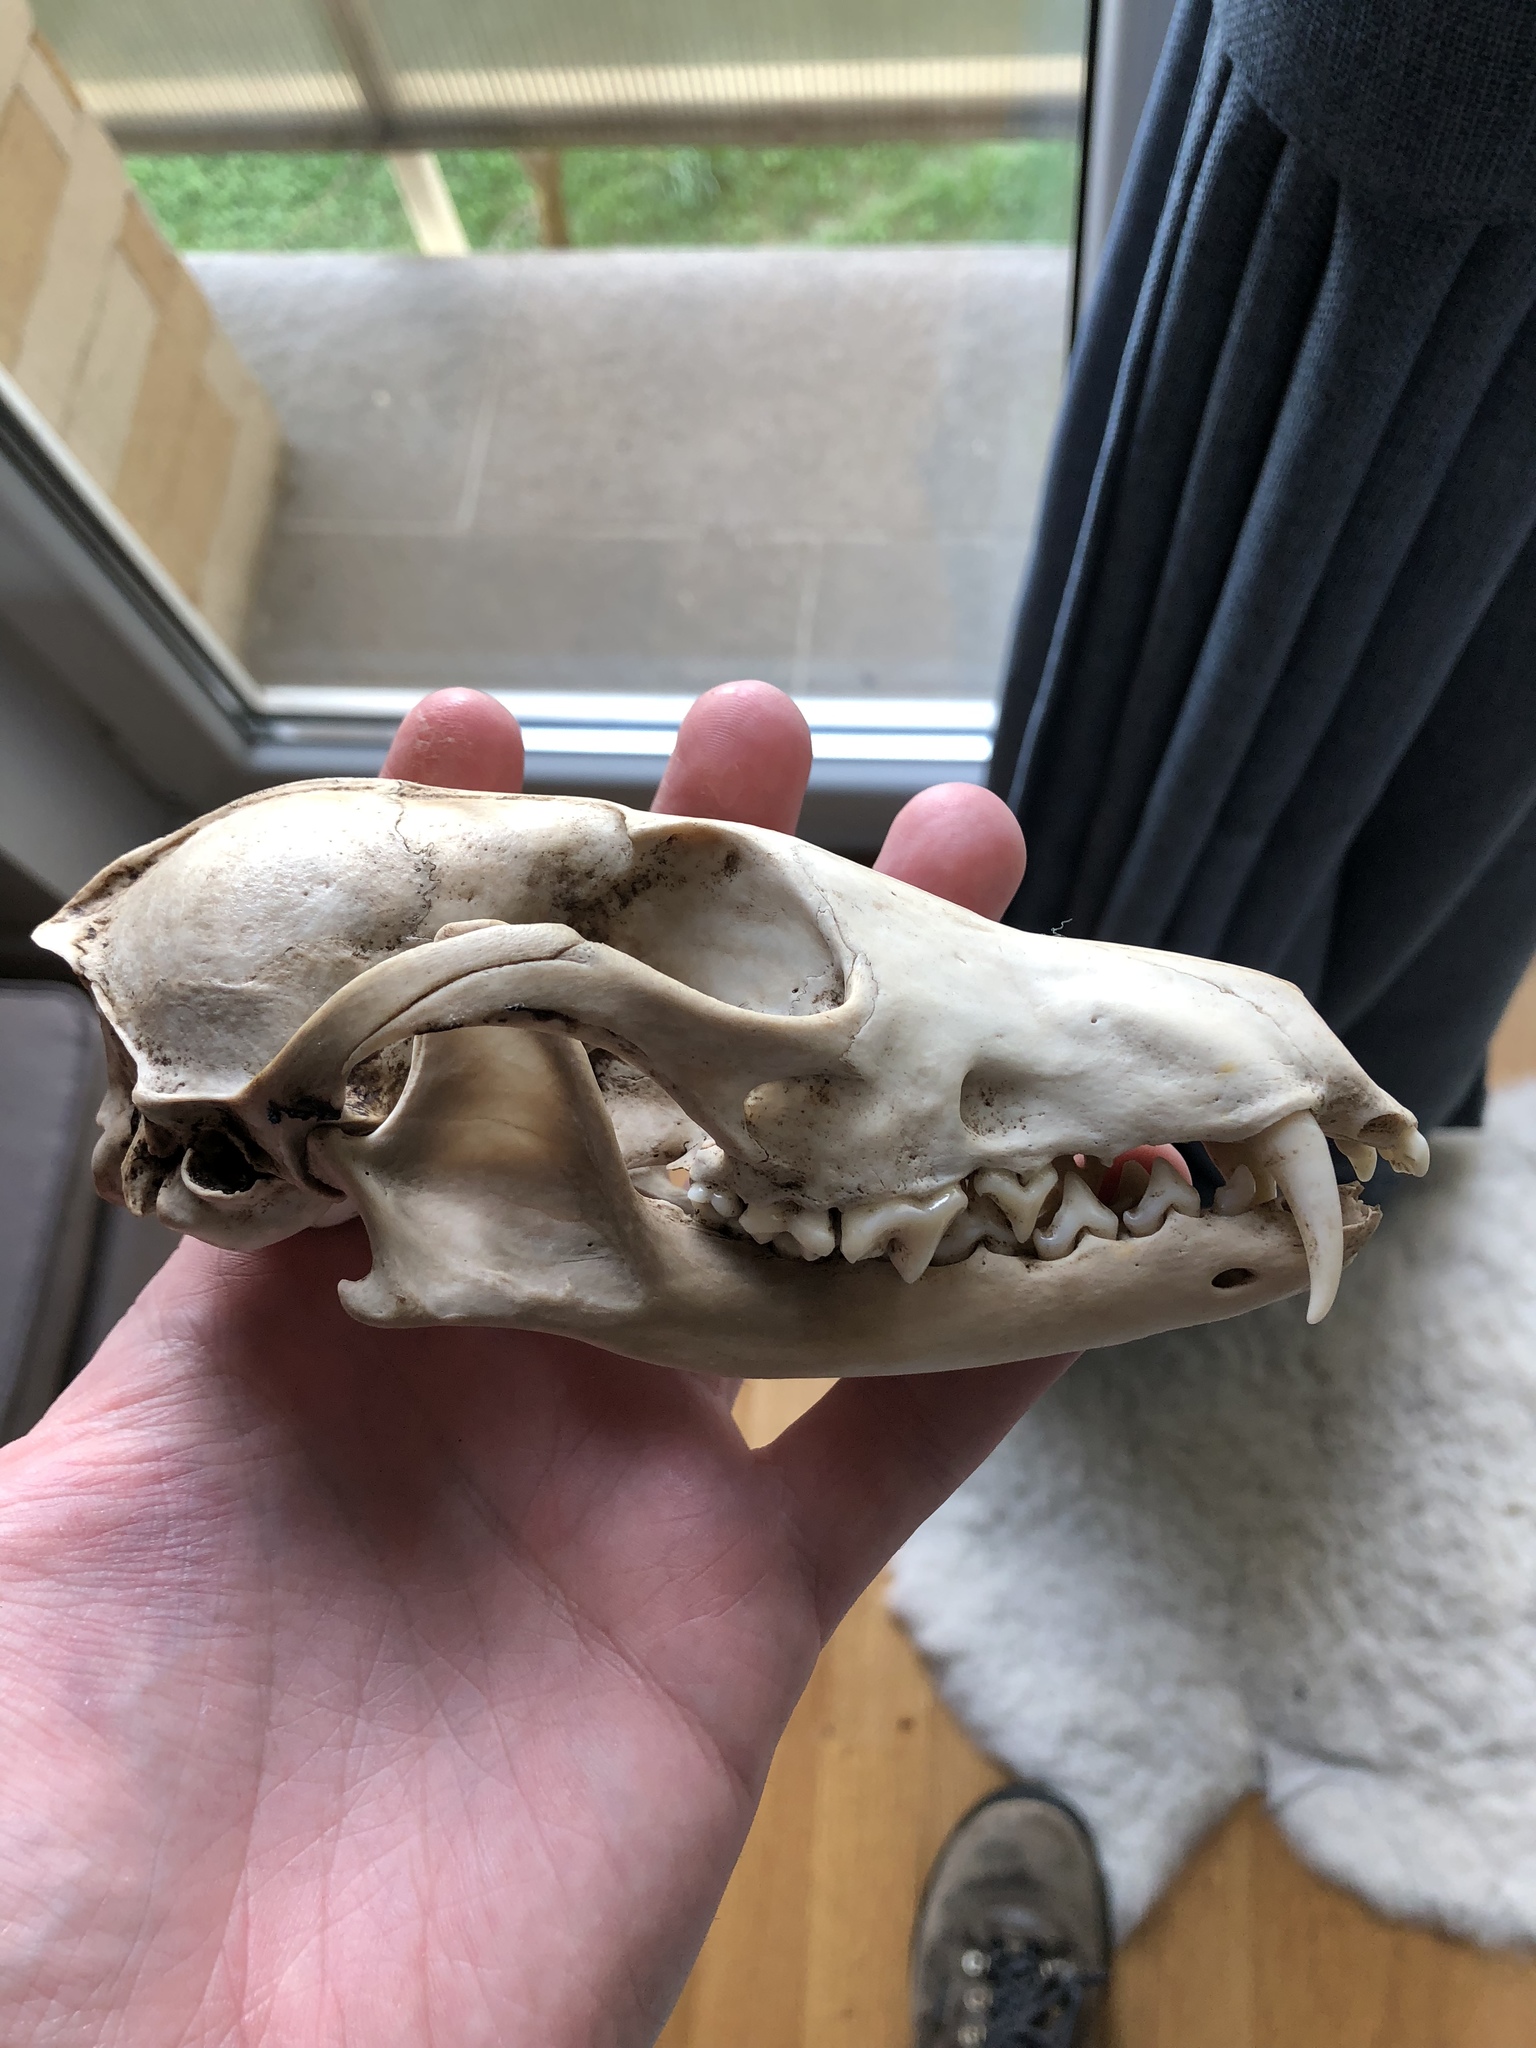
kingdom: Animalia
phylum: Chordata
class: Mammalia
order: Carnivora
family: Canidae
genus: Vulpes
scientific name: Vulpes vulpes
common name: Red fox
